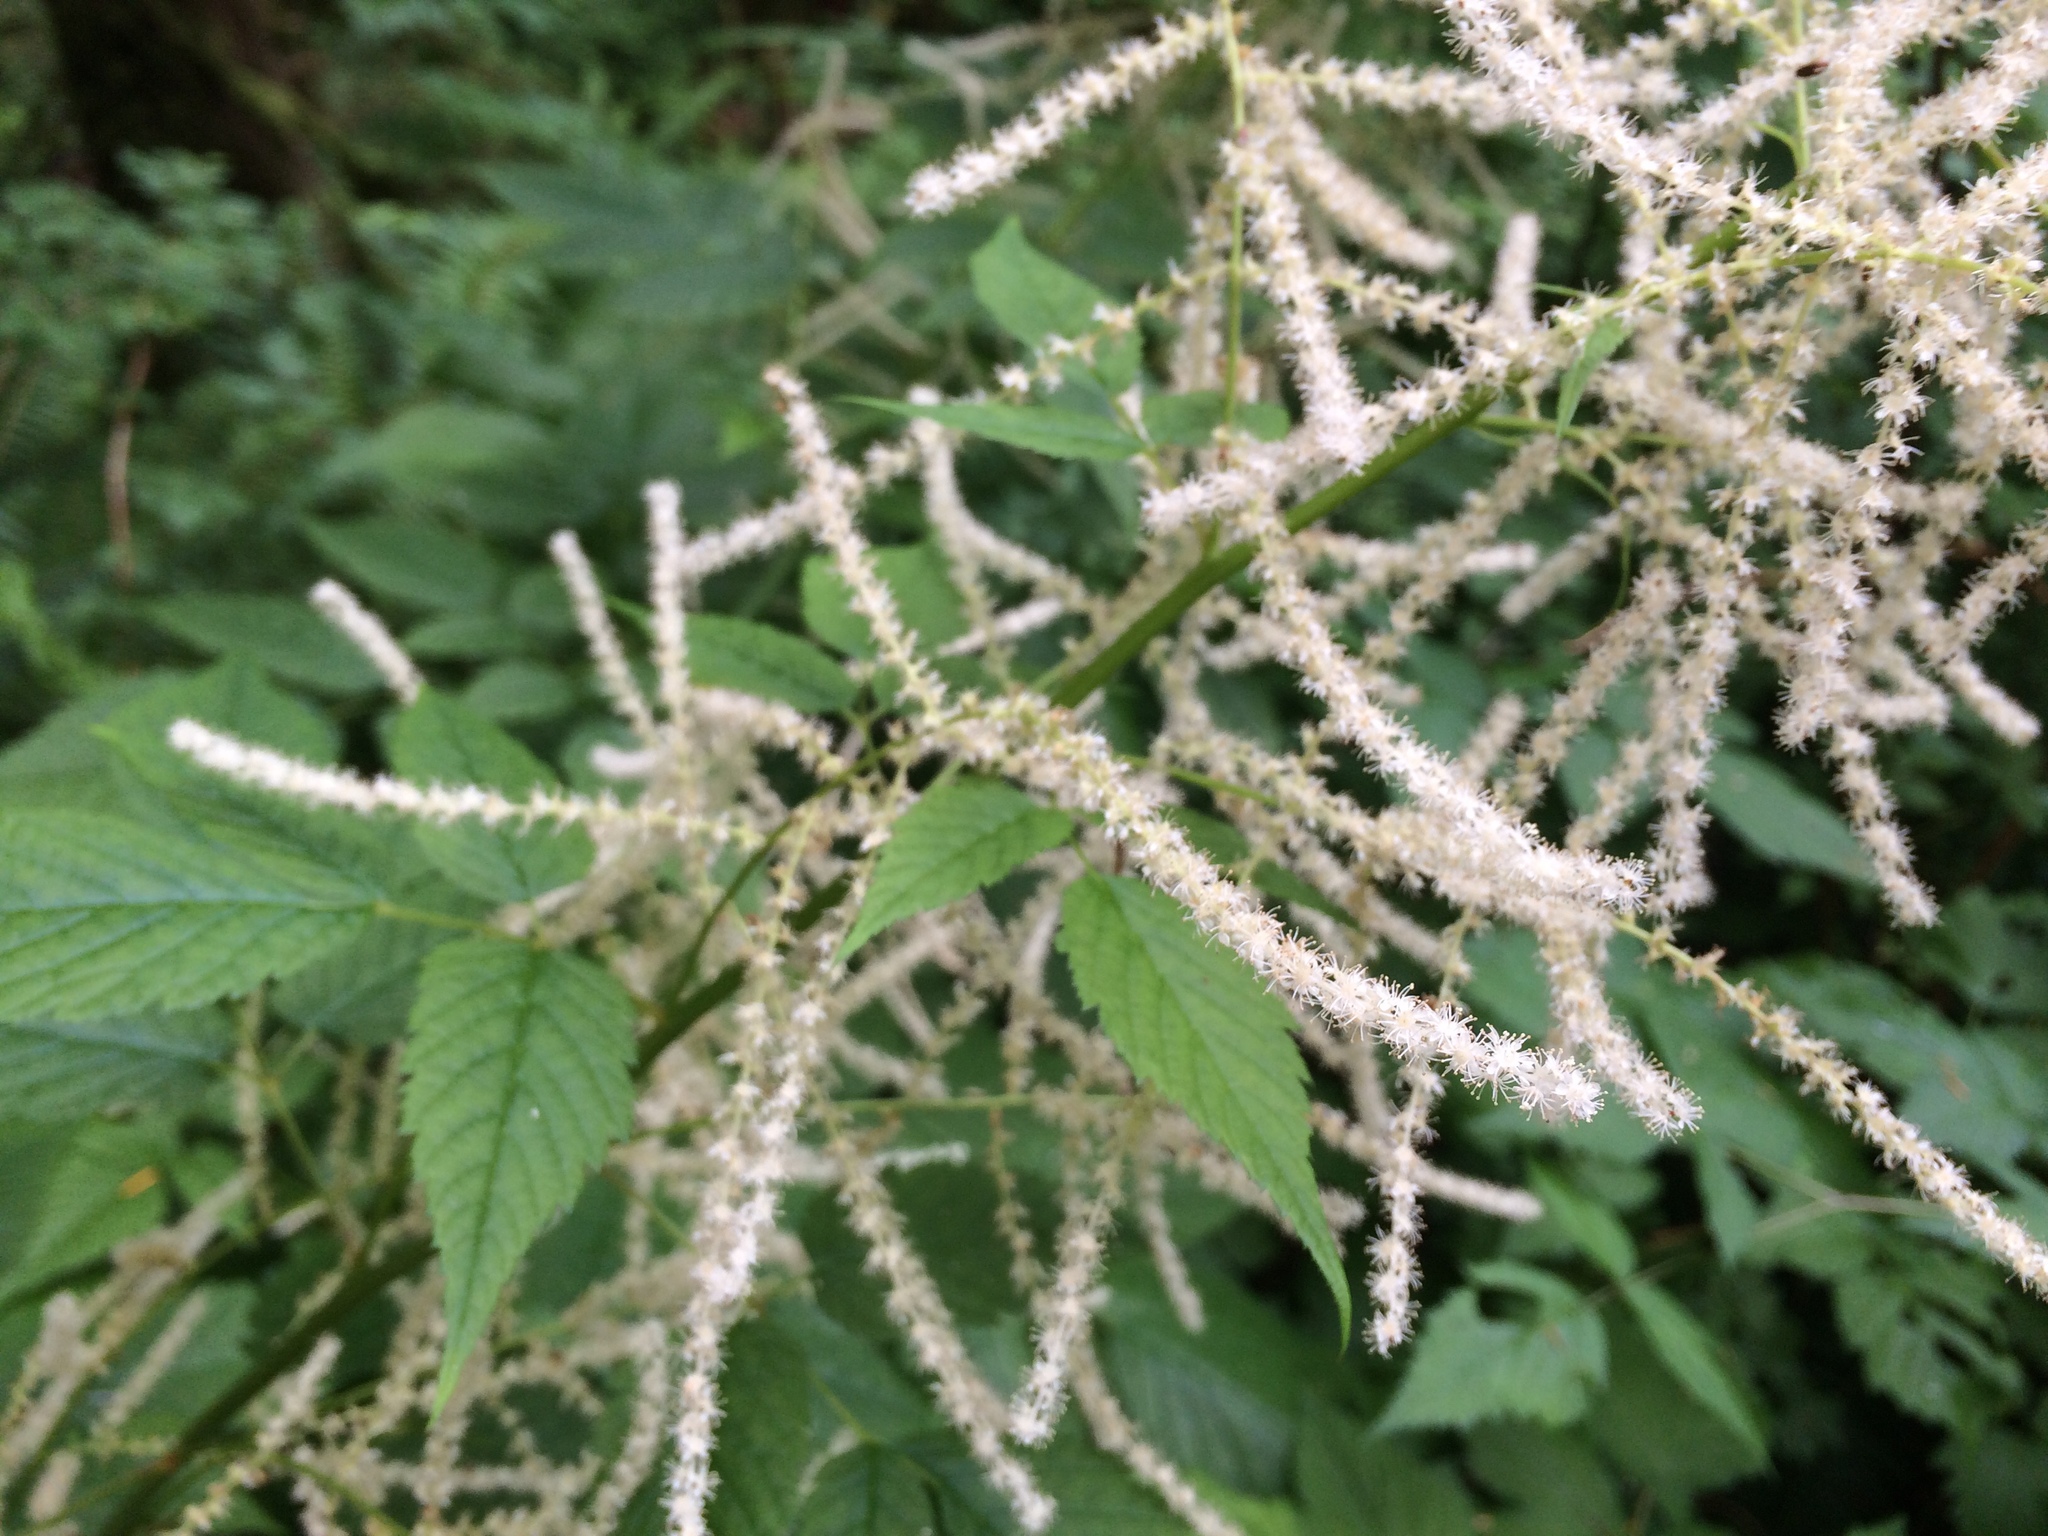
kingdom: Plantae
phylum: Tracheophyta
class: Magnoliopsida
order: Rosales
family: Rosaceae
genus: Aruncus
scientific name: Aruncus dioicus
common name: Buck's-beard
